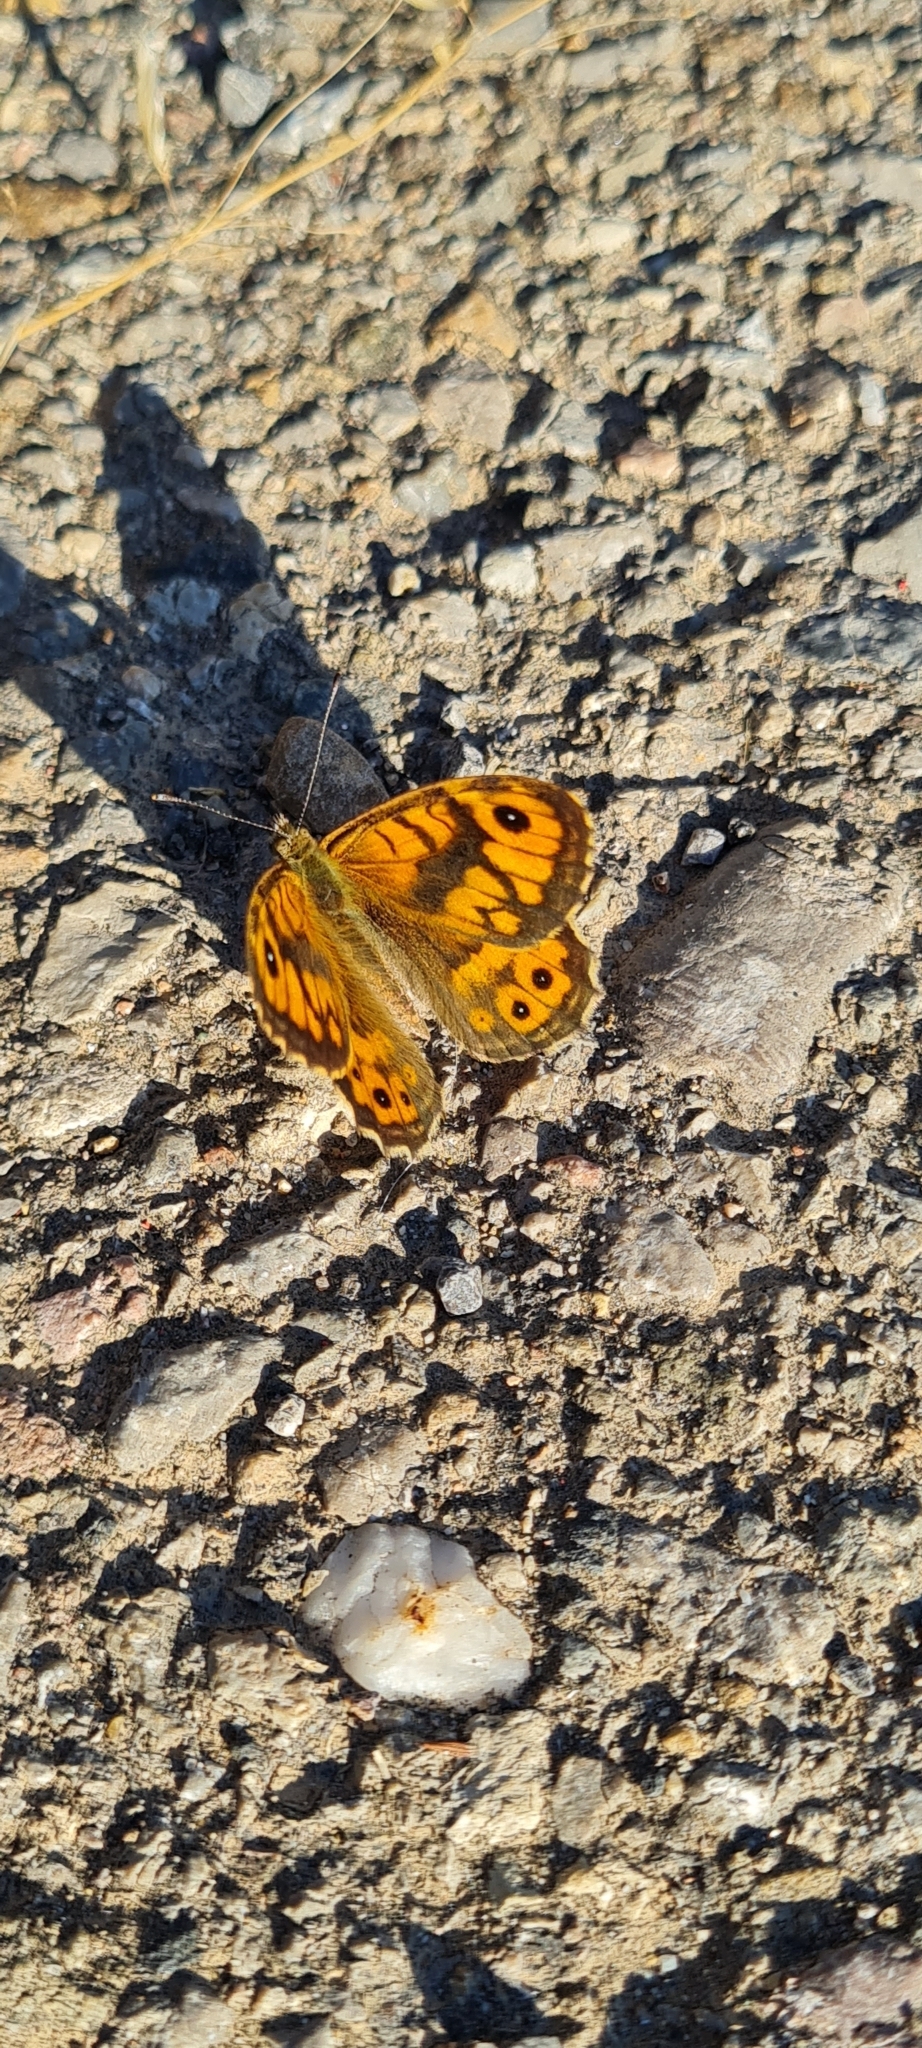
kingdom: Animalia
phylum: Arthropoda
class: Insecta
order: Lepidoptera
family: Nymphalidae
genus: Pararge
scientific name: Pararge Lasiommata megera
